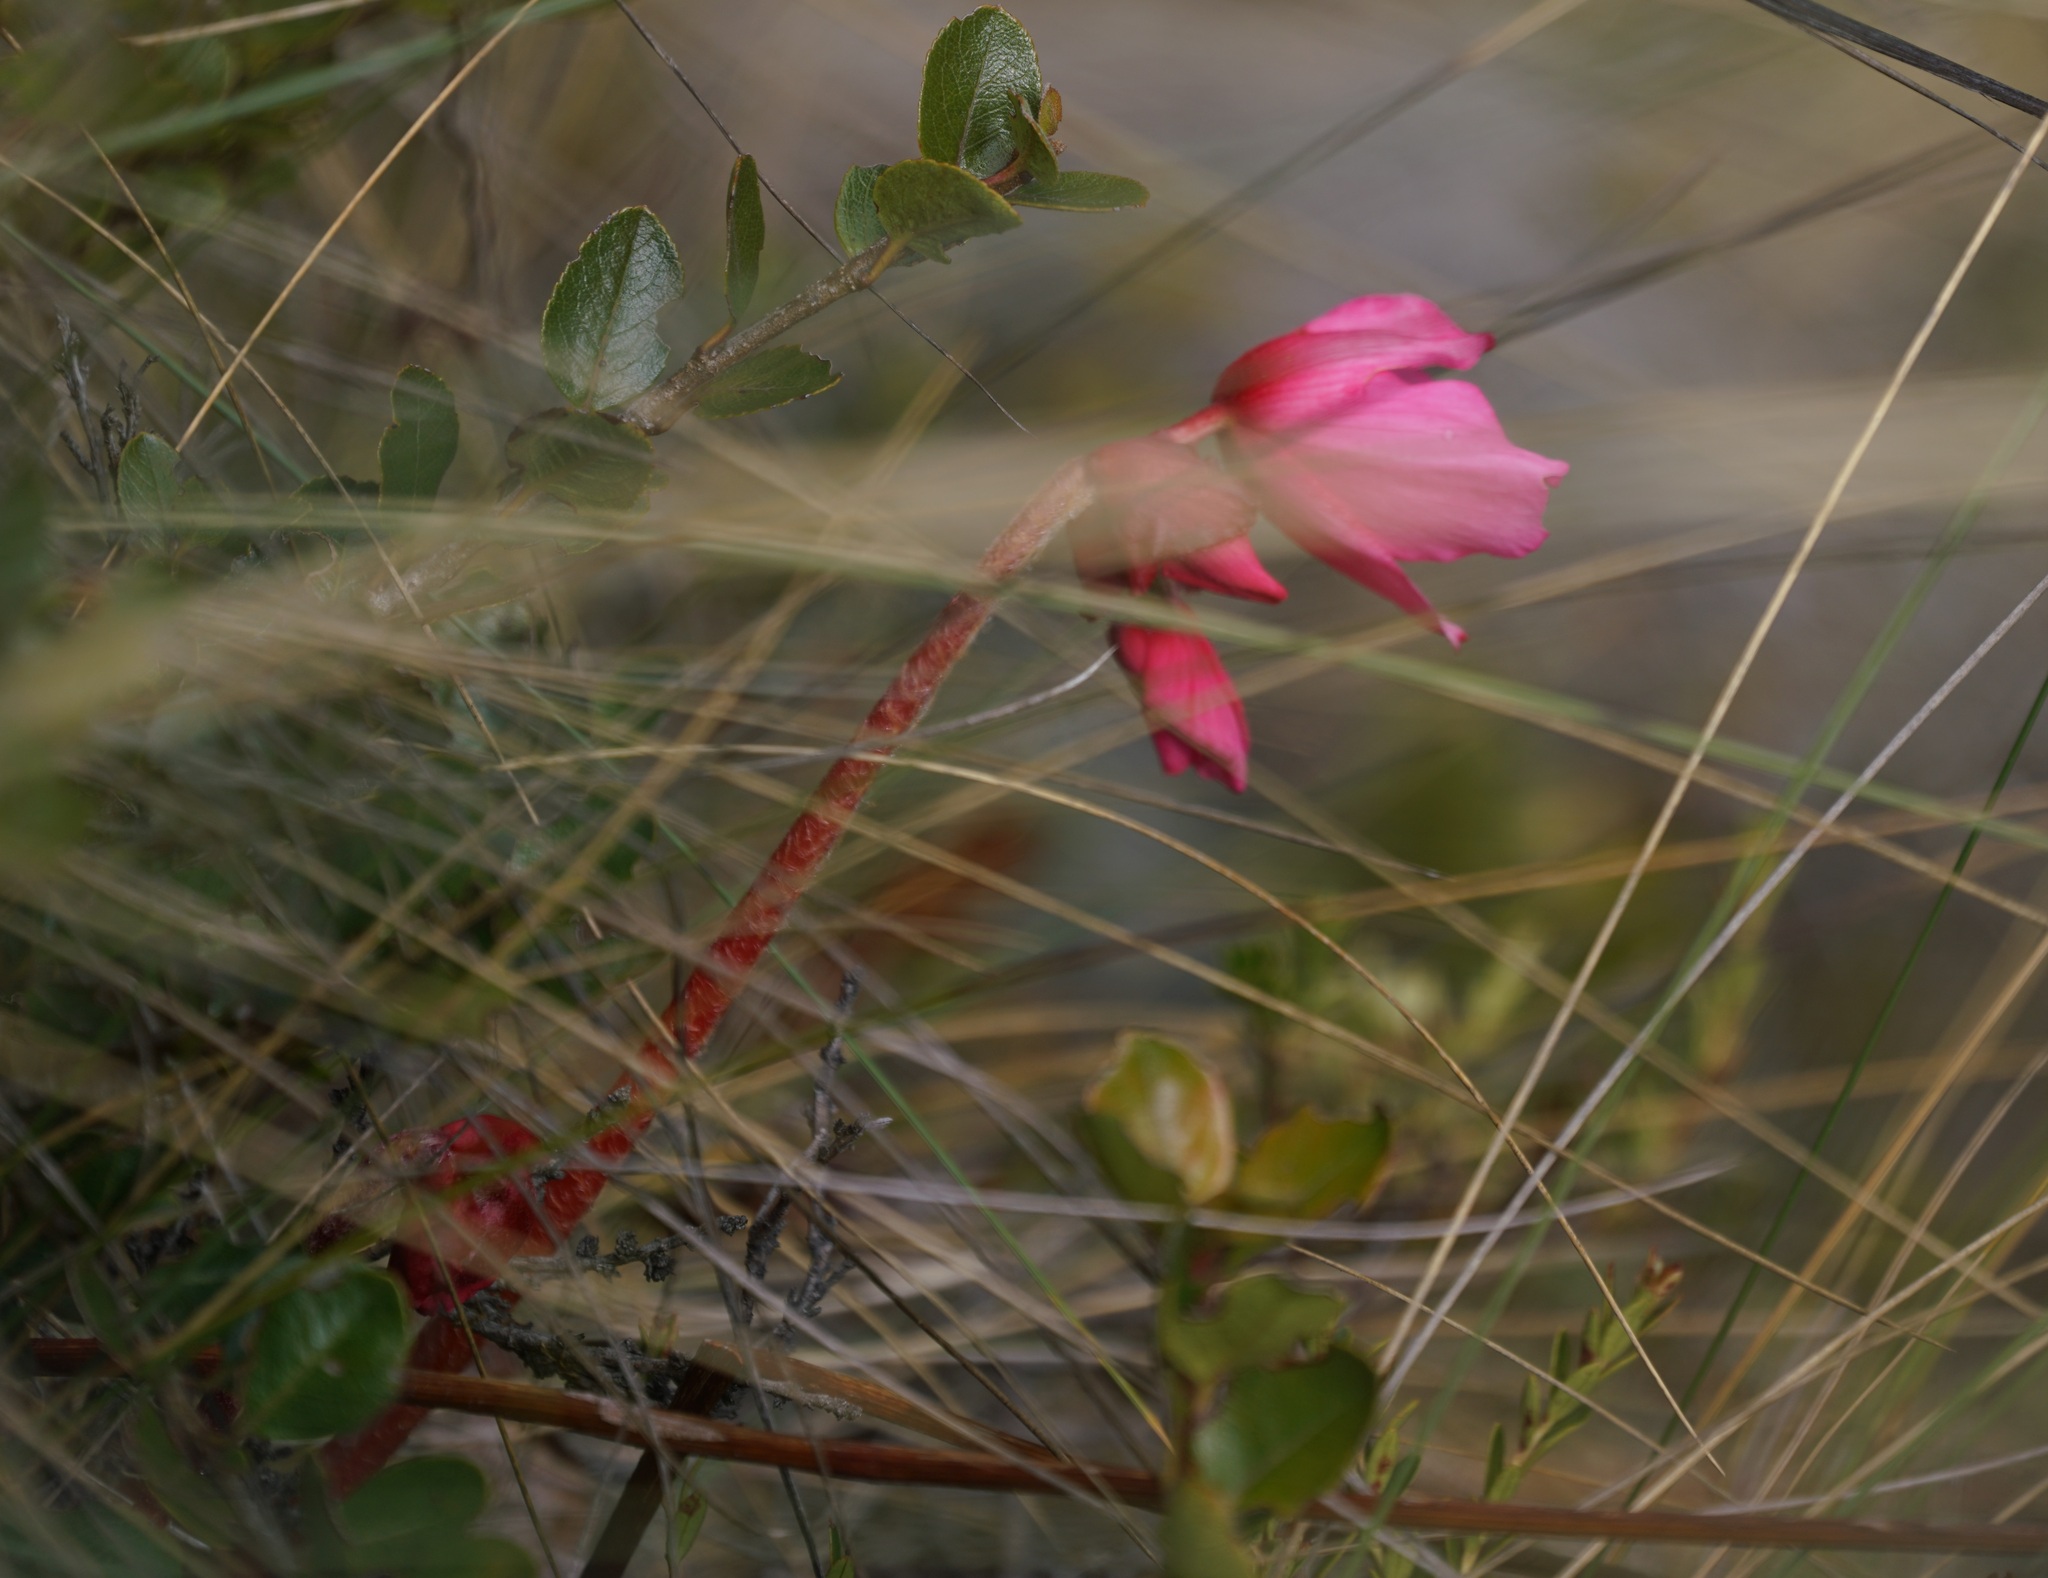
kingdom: Plantae
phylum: Tracheophyta
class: Magnoliopsida
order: Cucurbitales
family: Begoniaceae
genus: Begonia
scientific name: Begonia veitchii
